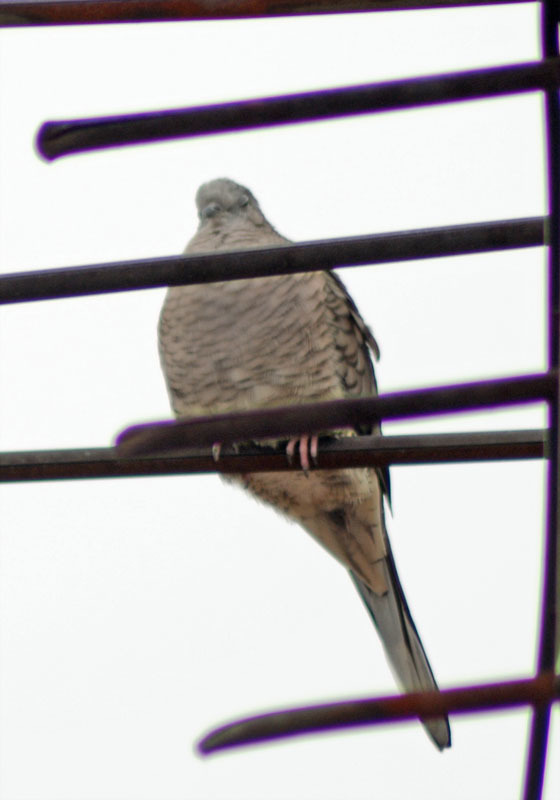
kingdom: Animalia
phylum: Chordata
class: Aves
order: Columbiformes
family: Columbidae
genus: Columbina
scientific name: Columbina inca
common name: Inca dove
